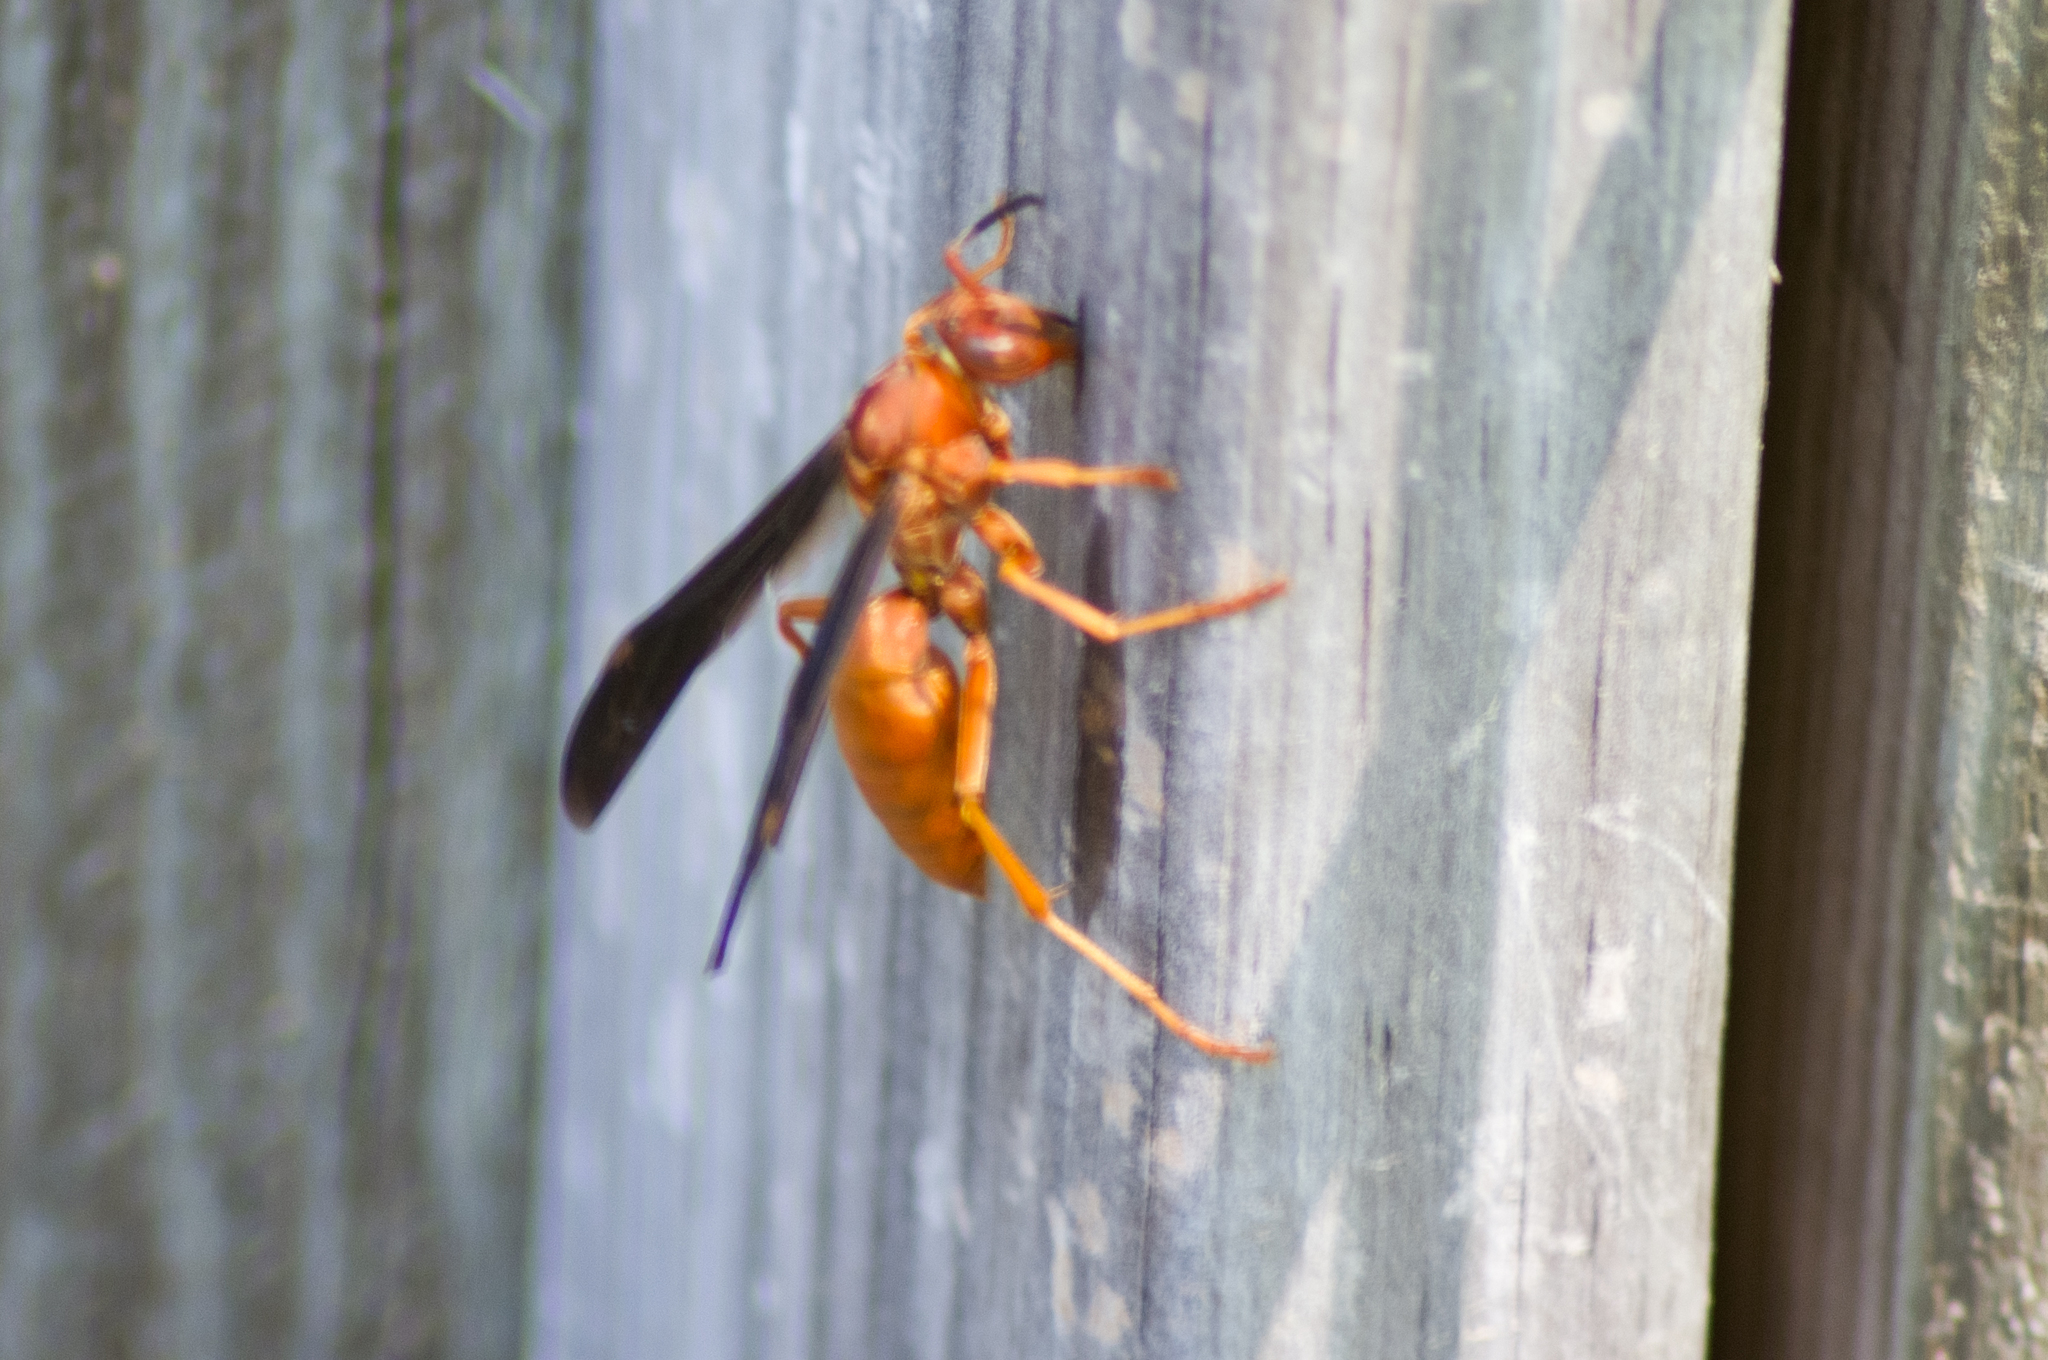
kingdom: Animalia
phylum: Arthropoda
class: Insecta
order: Hymenoptera
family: Vespidae
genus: Fuscopolistes
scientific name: Fuscopolistes
